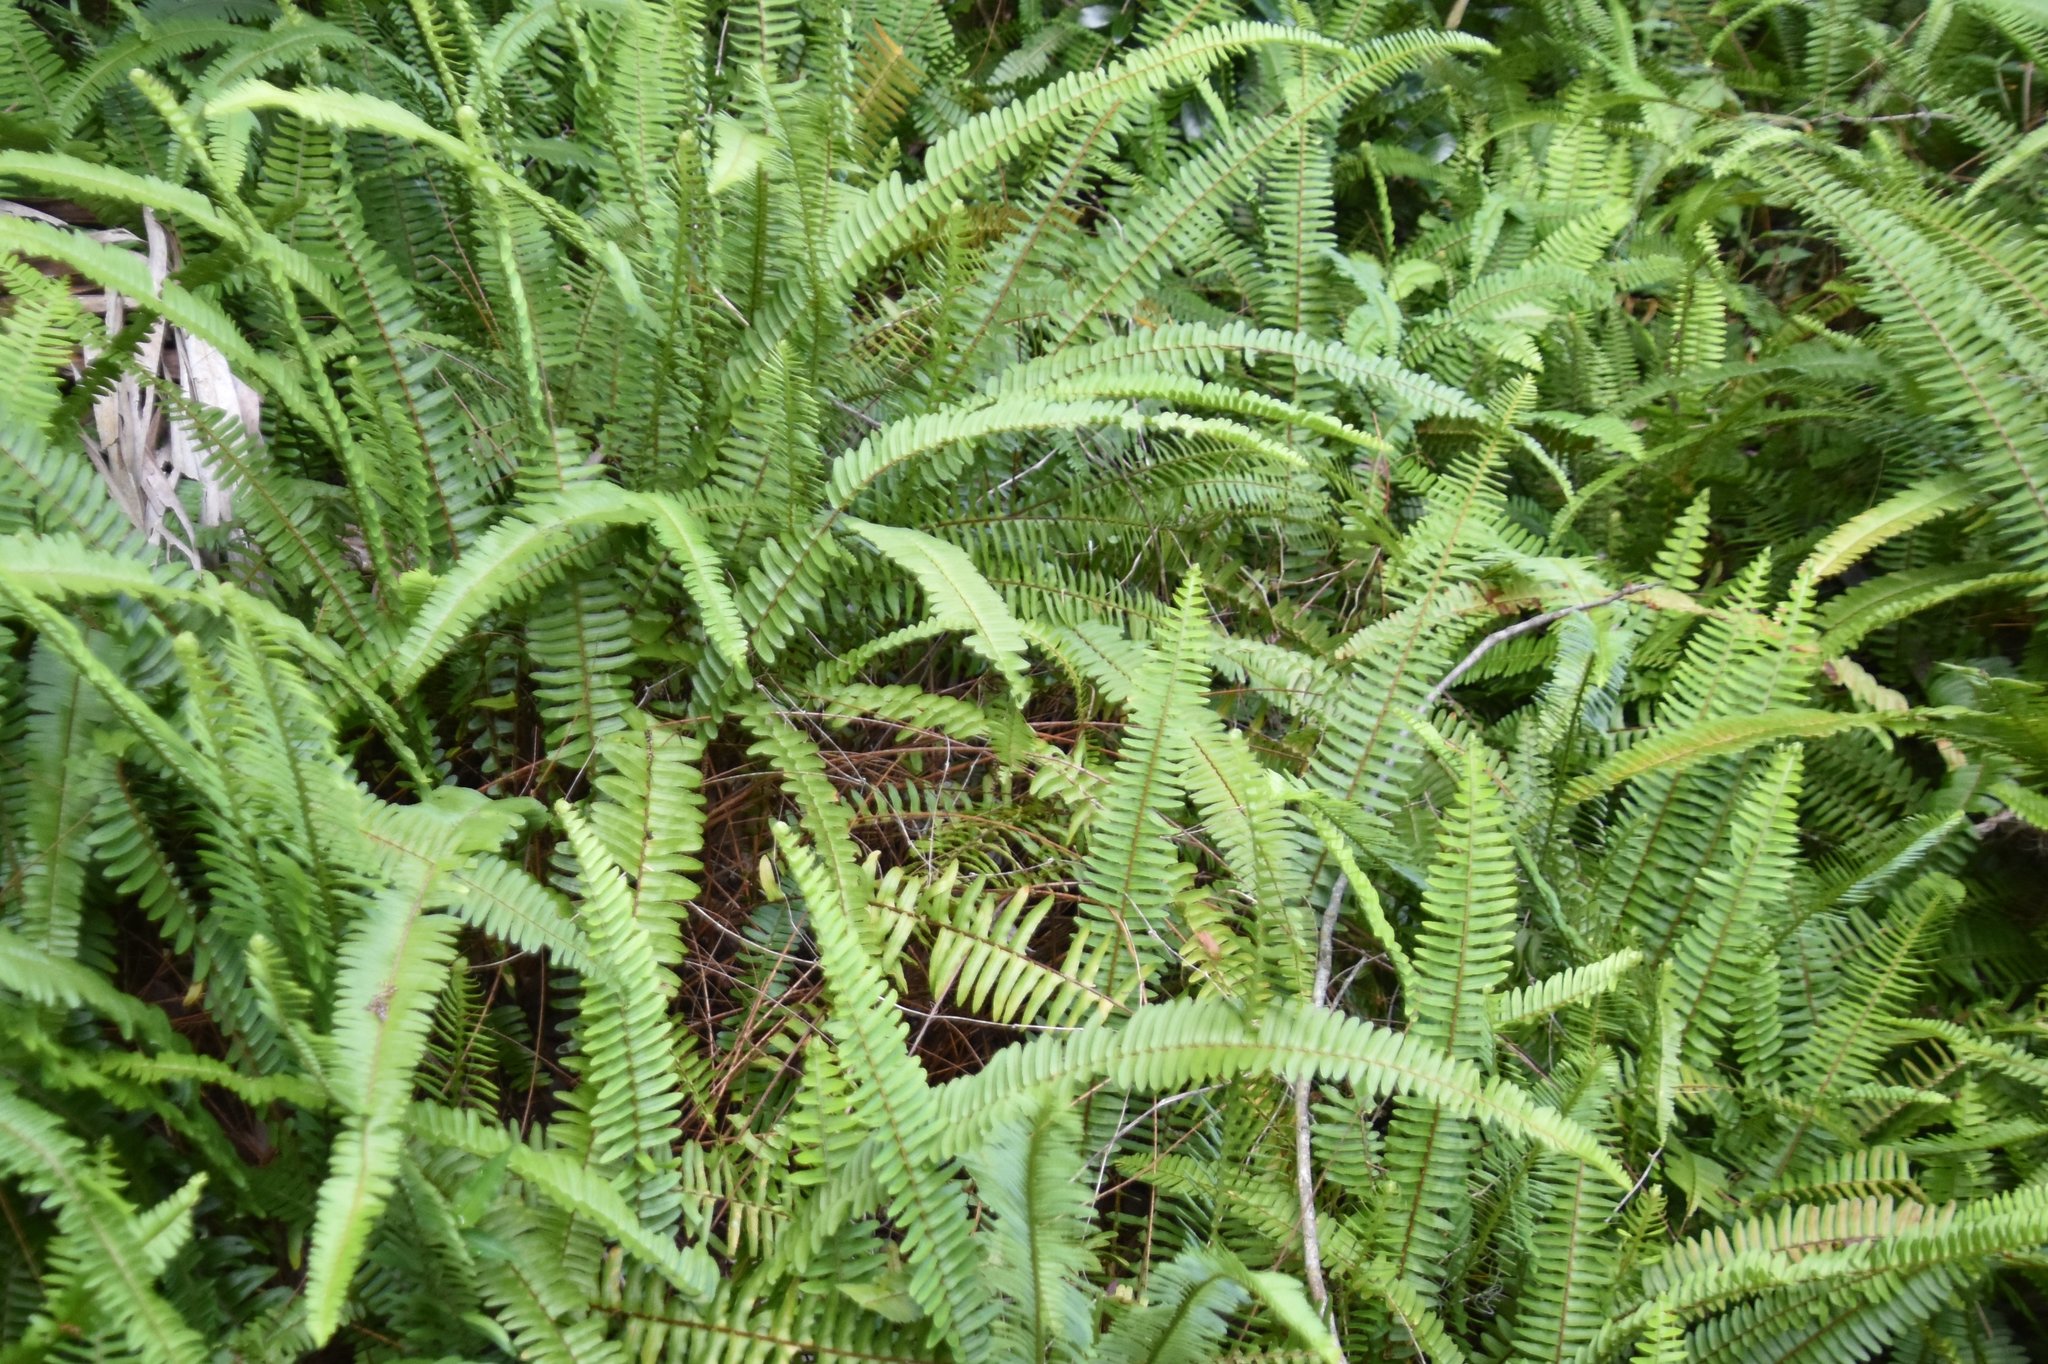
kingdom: Plantae
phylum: Tracheophyta
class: Polypodiopsida
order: Polypodiales
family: Nephrolepidaceae
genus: Nephrolepis
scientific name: Nephrolepis cordifolia
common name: Narrow swordfern
